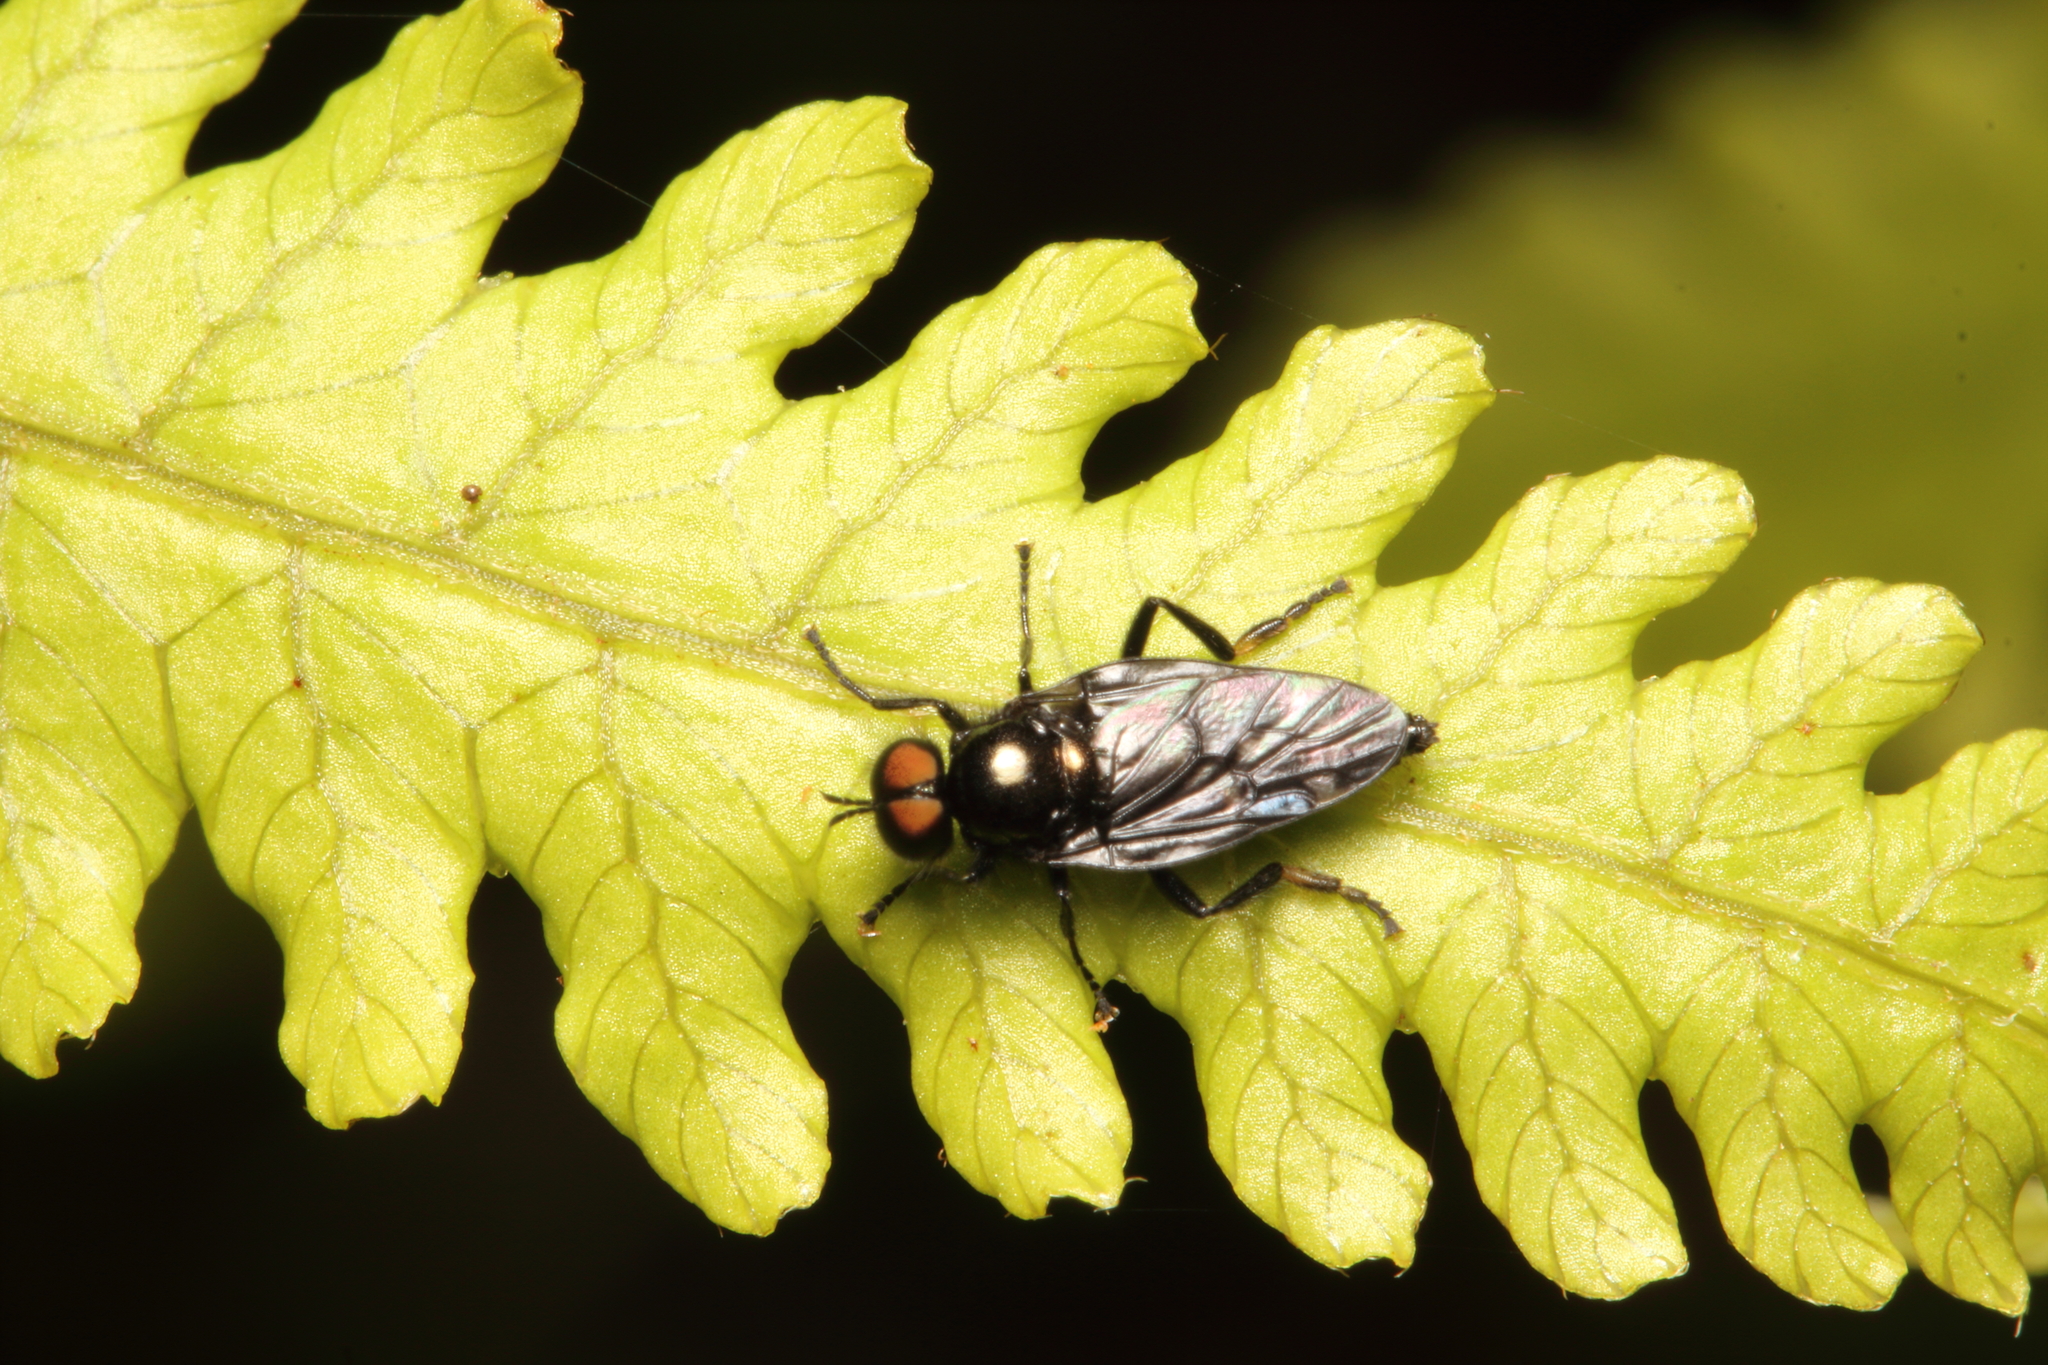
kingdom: Animalia
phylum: Arthropoda
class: Insecta
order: Diptera
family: Stratiomyidae
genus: Berisina
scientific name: Berisina maculipennis
